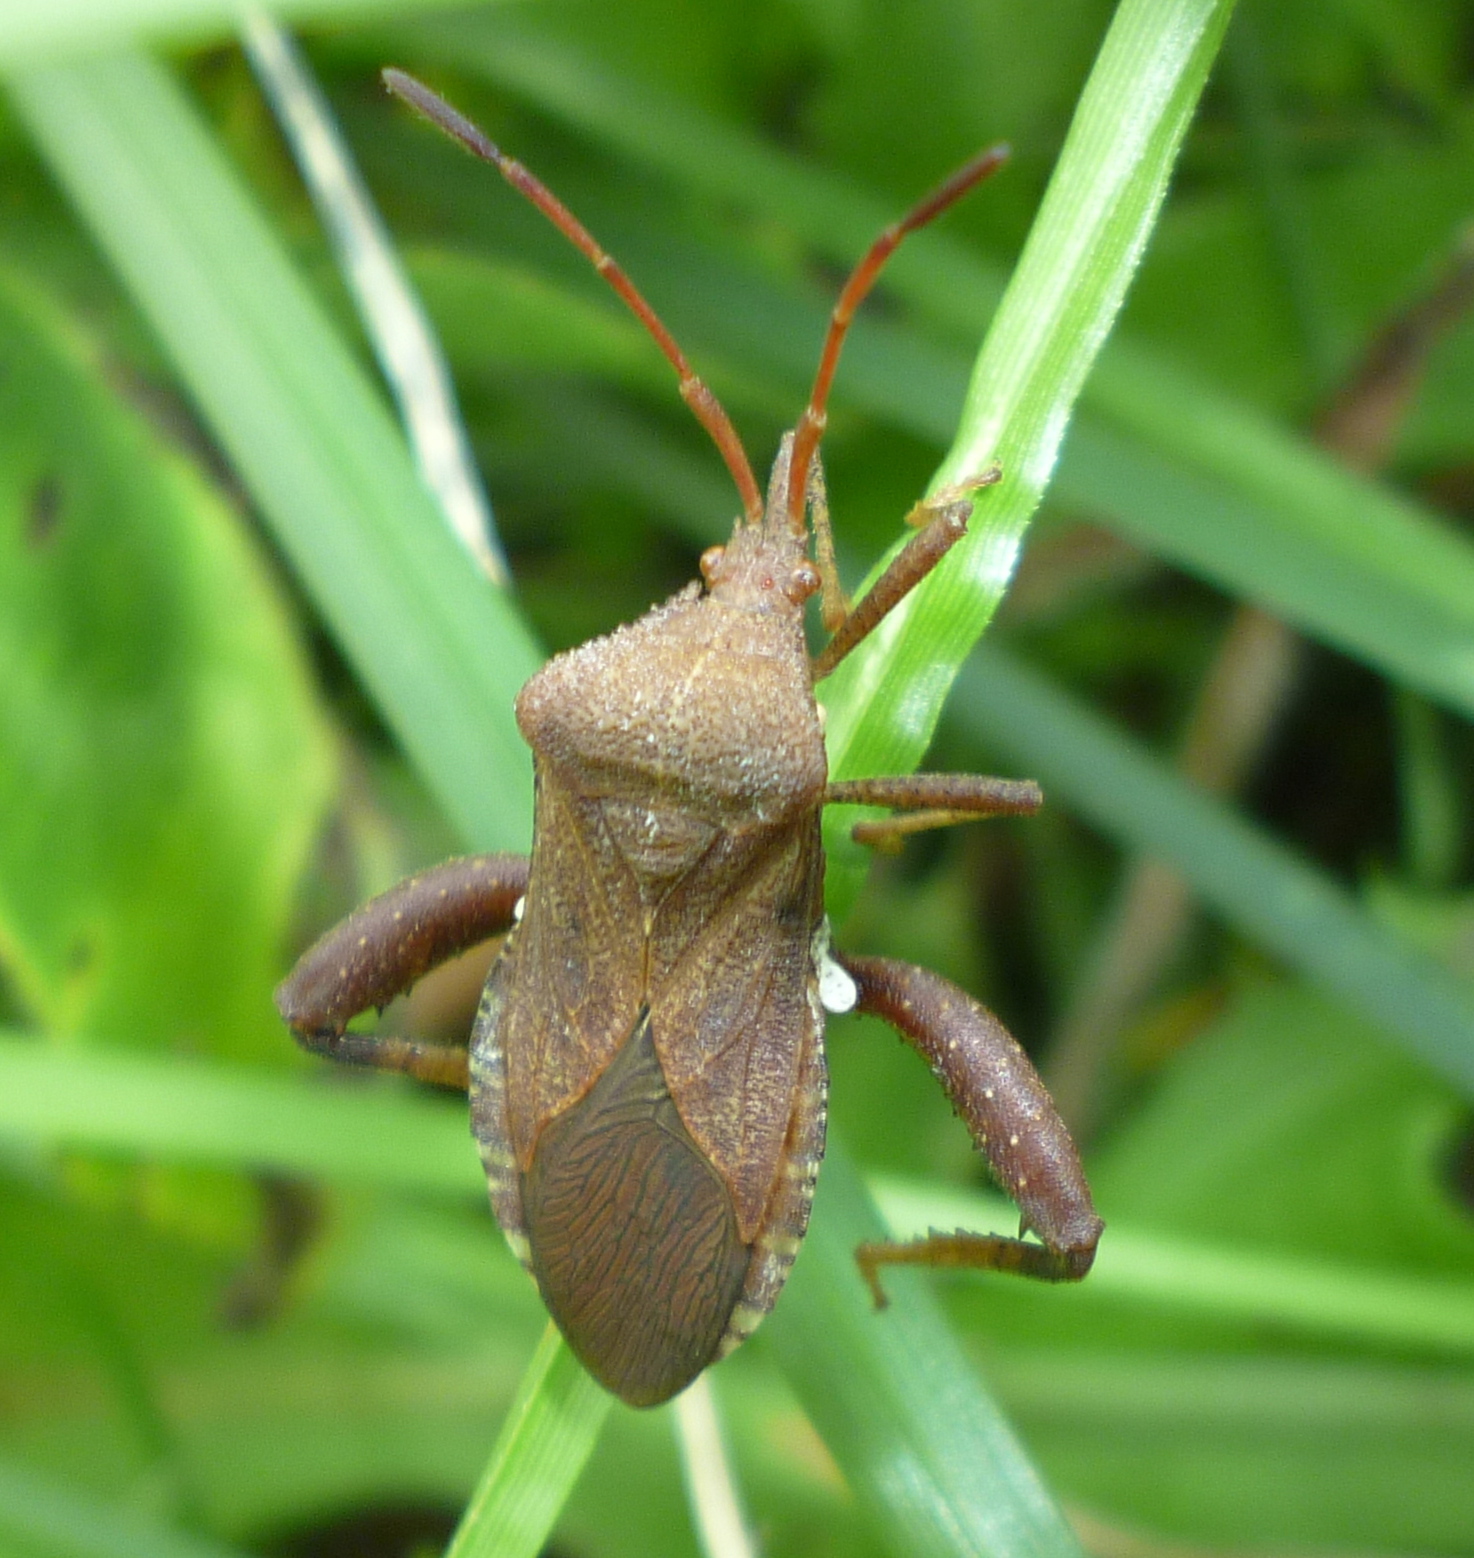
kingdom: Animalia
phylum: Arthropoda
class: Insecta
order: Hemiptera
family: Coreidae
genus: Euthochtha
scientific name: Euthochtha galeator
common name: Helmeted squash bug
